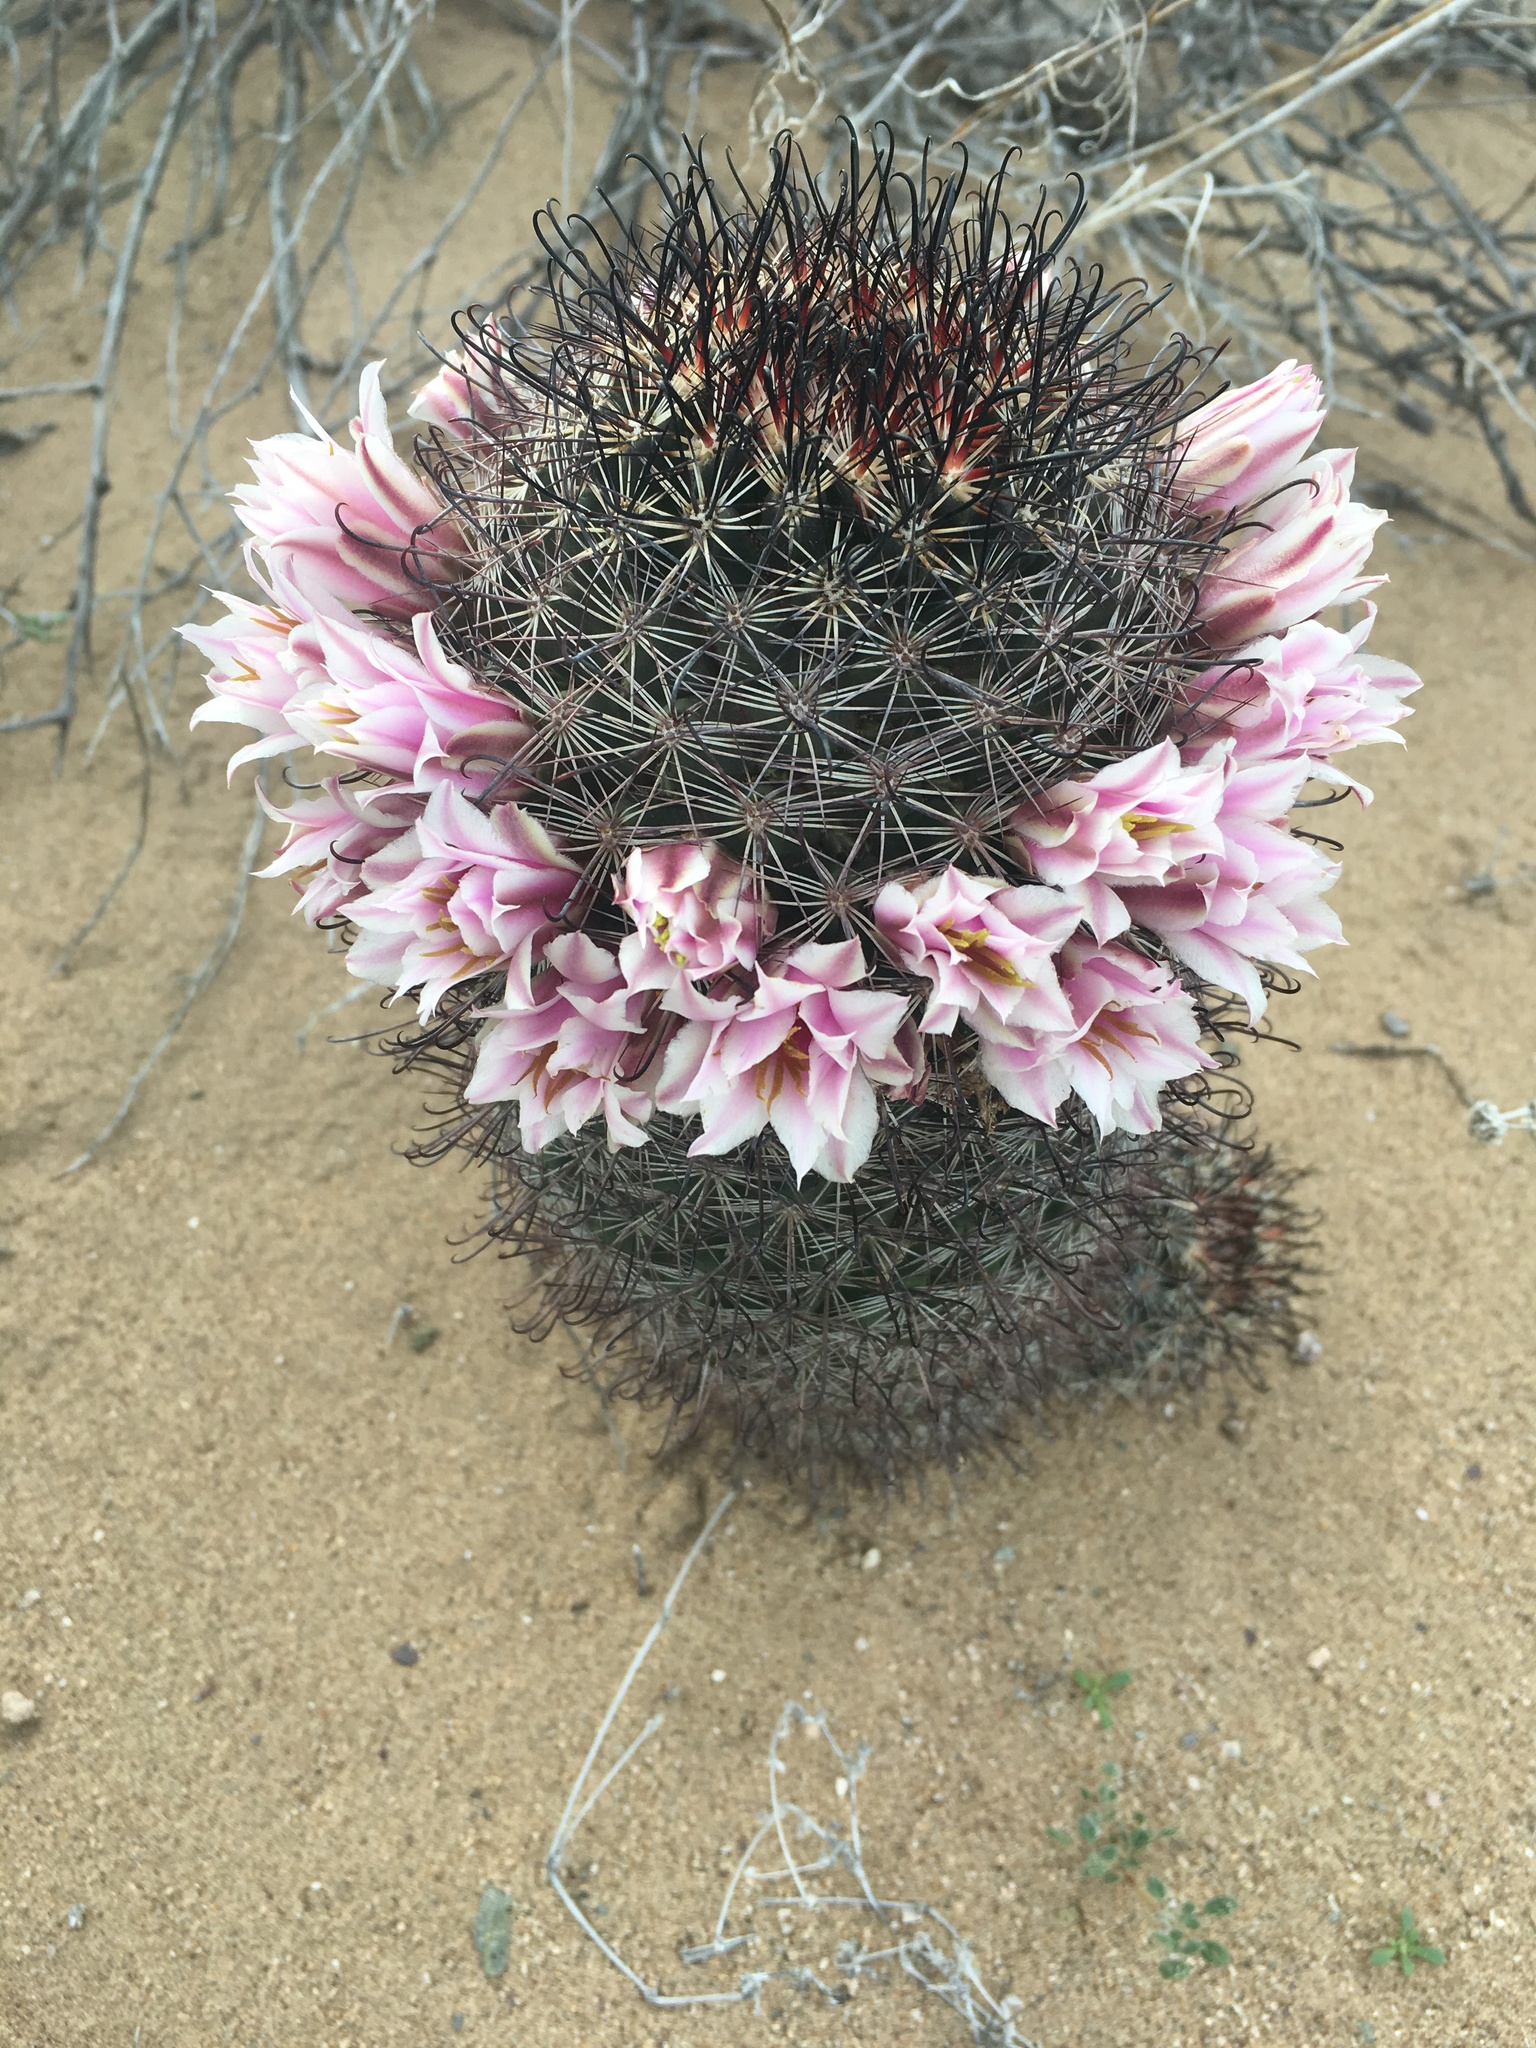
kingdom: Plantae
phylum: Tracheophyta
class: Magnoliopsida
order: Caryophyllales
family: Cactaceae
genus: Cochemiea
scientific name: Cochemiea sheldonii
